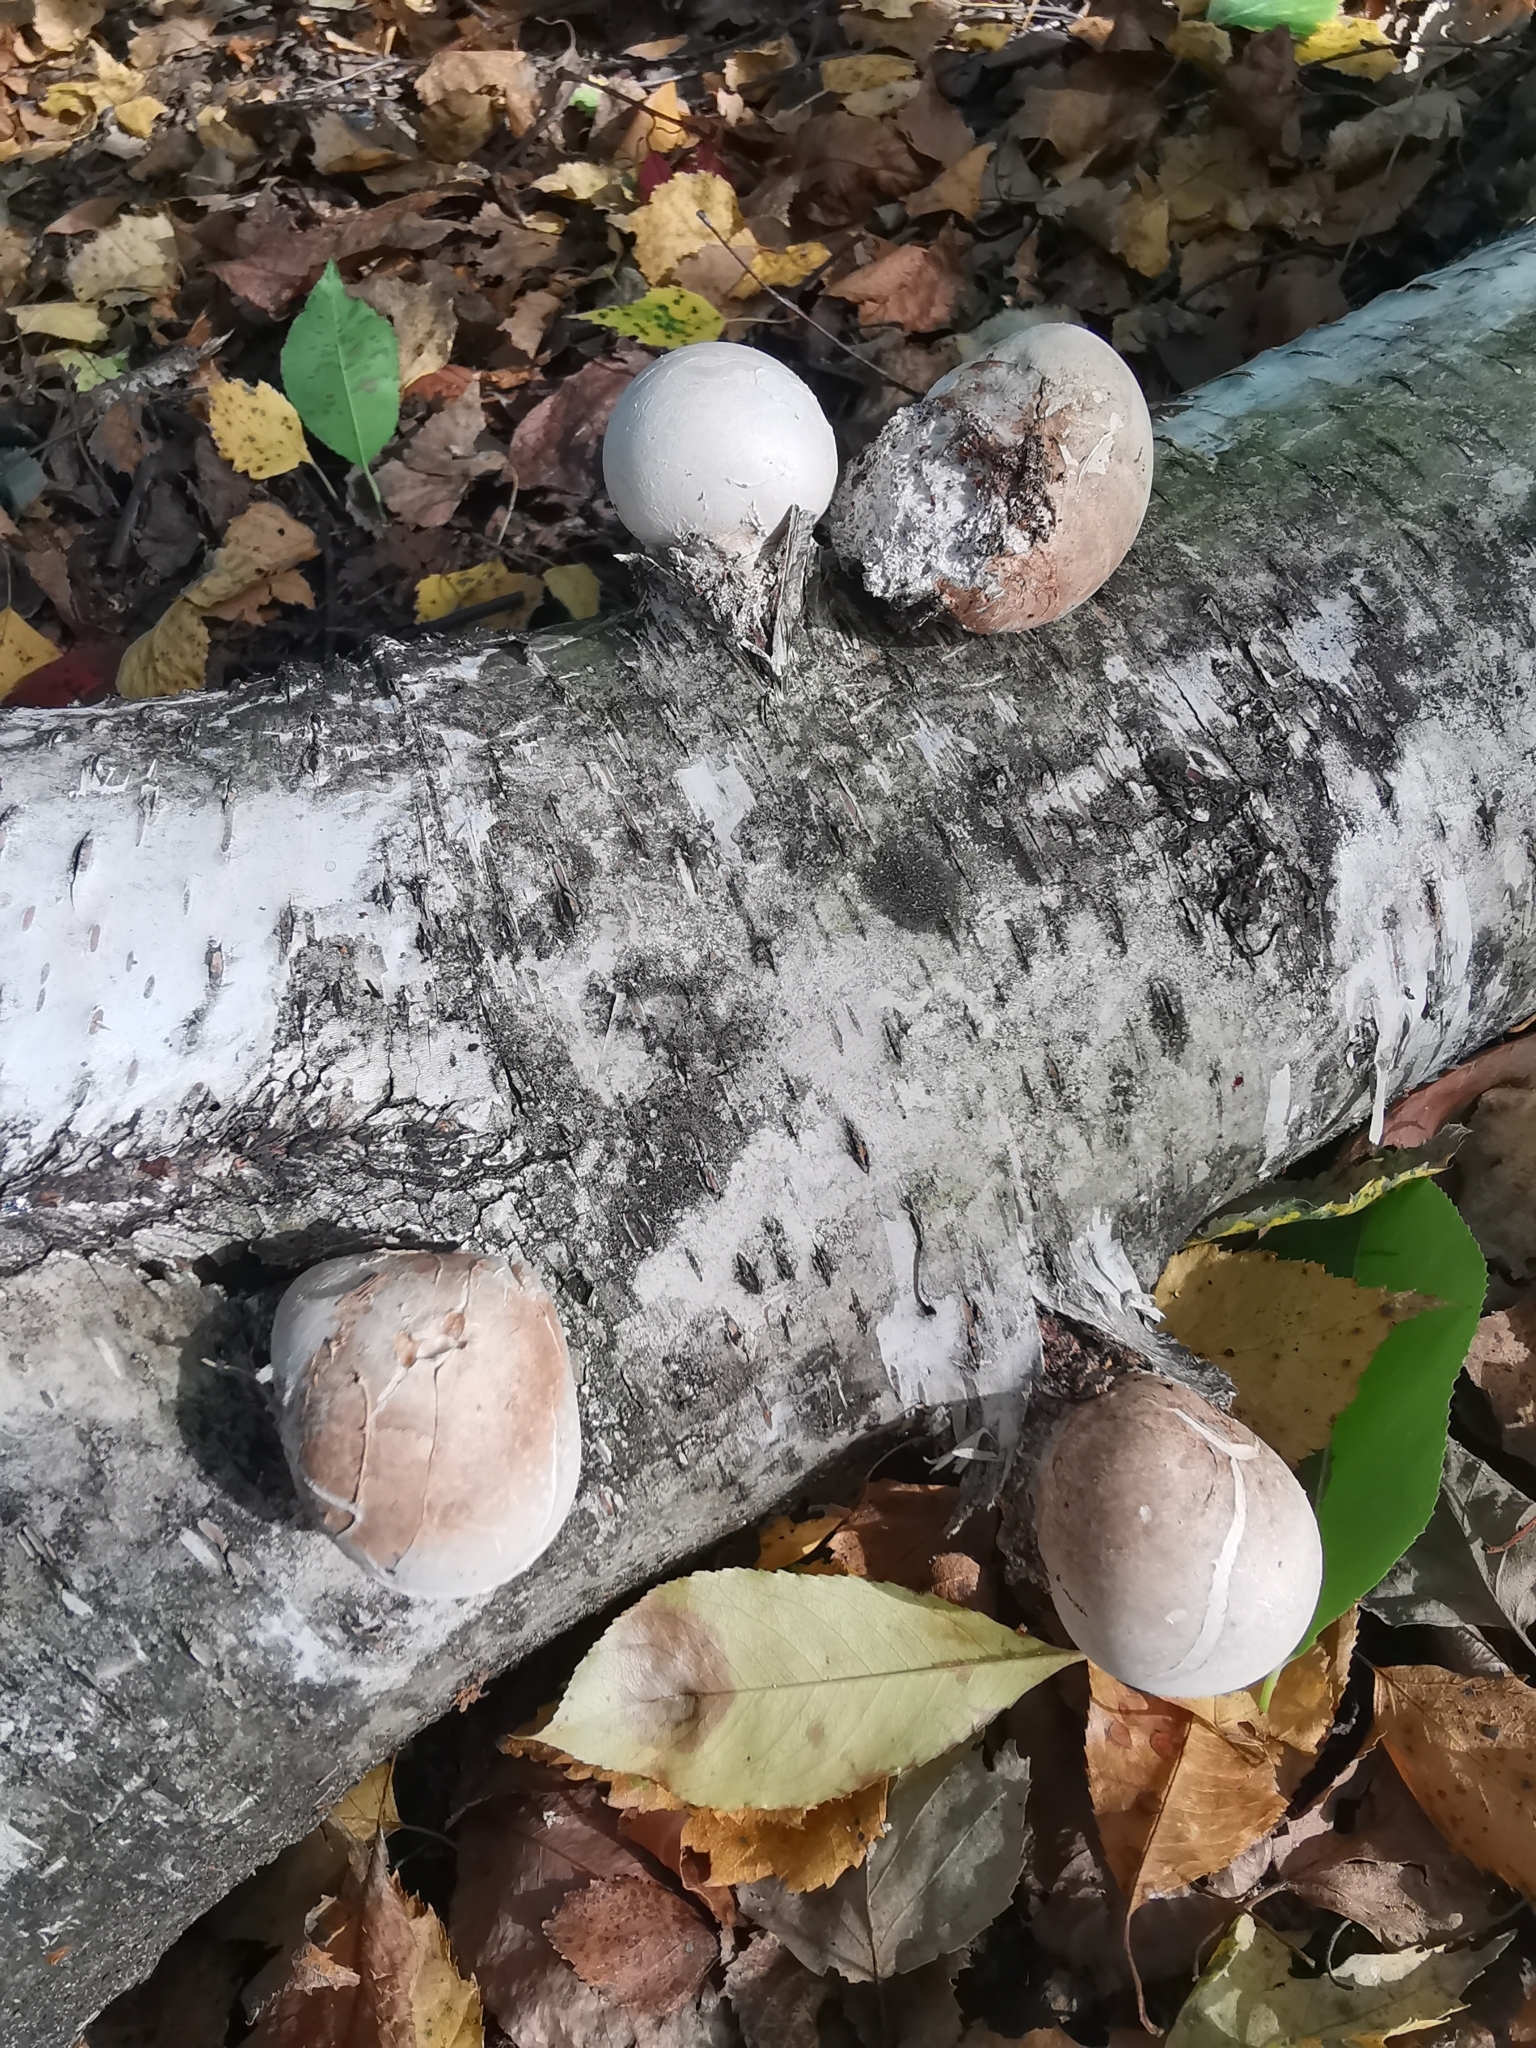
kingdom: Fungi
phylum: Basidiomycota
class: Agaricomycetes
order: Polyporales
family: Fomitopsidaceae
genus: Fomitopsis
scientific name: Fomitopsis betulina
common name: Birch polypore
